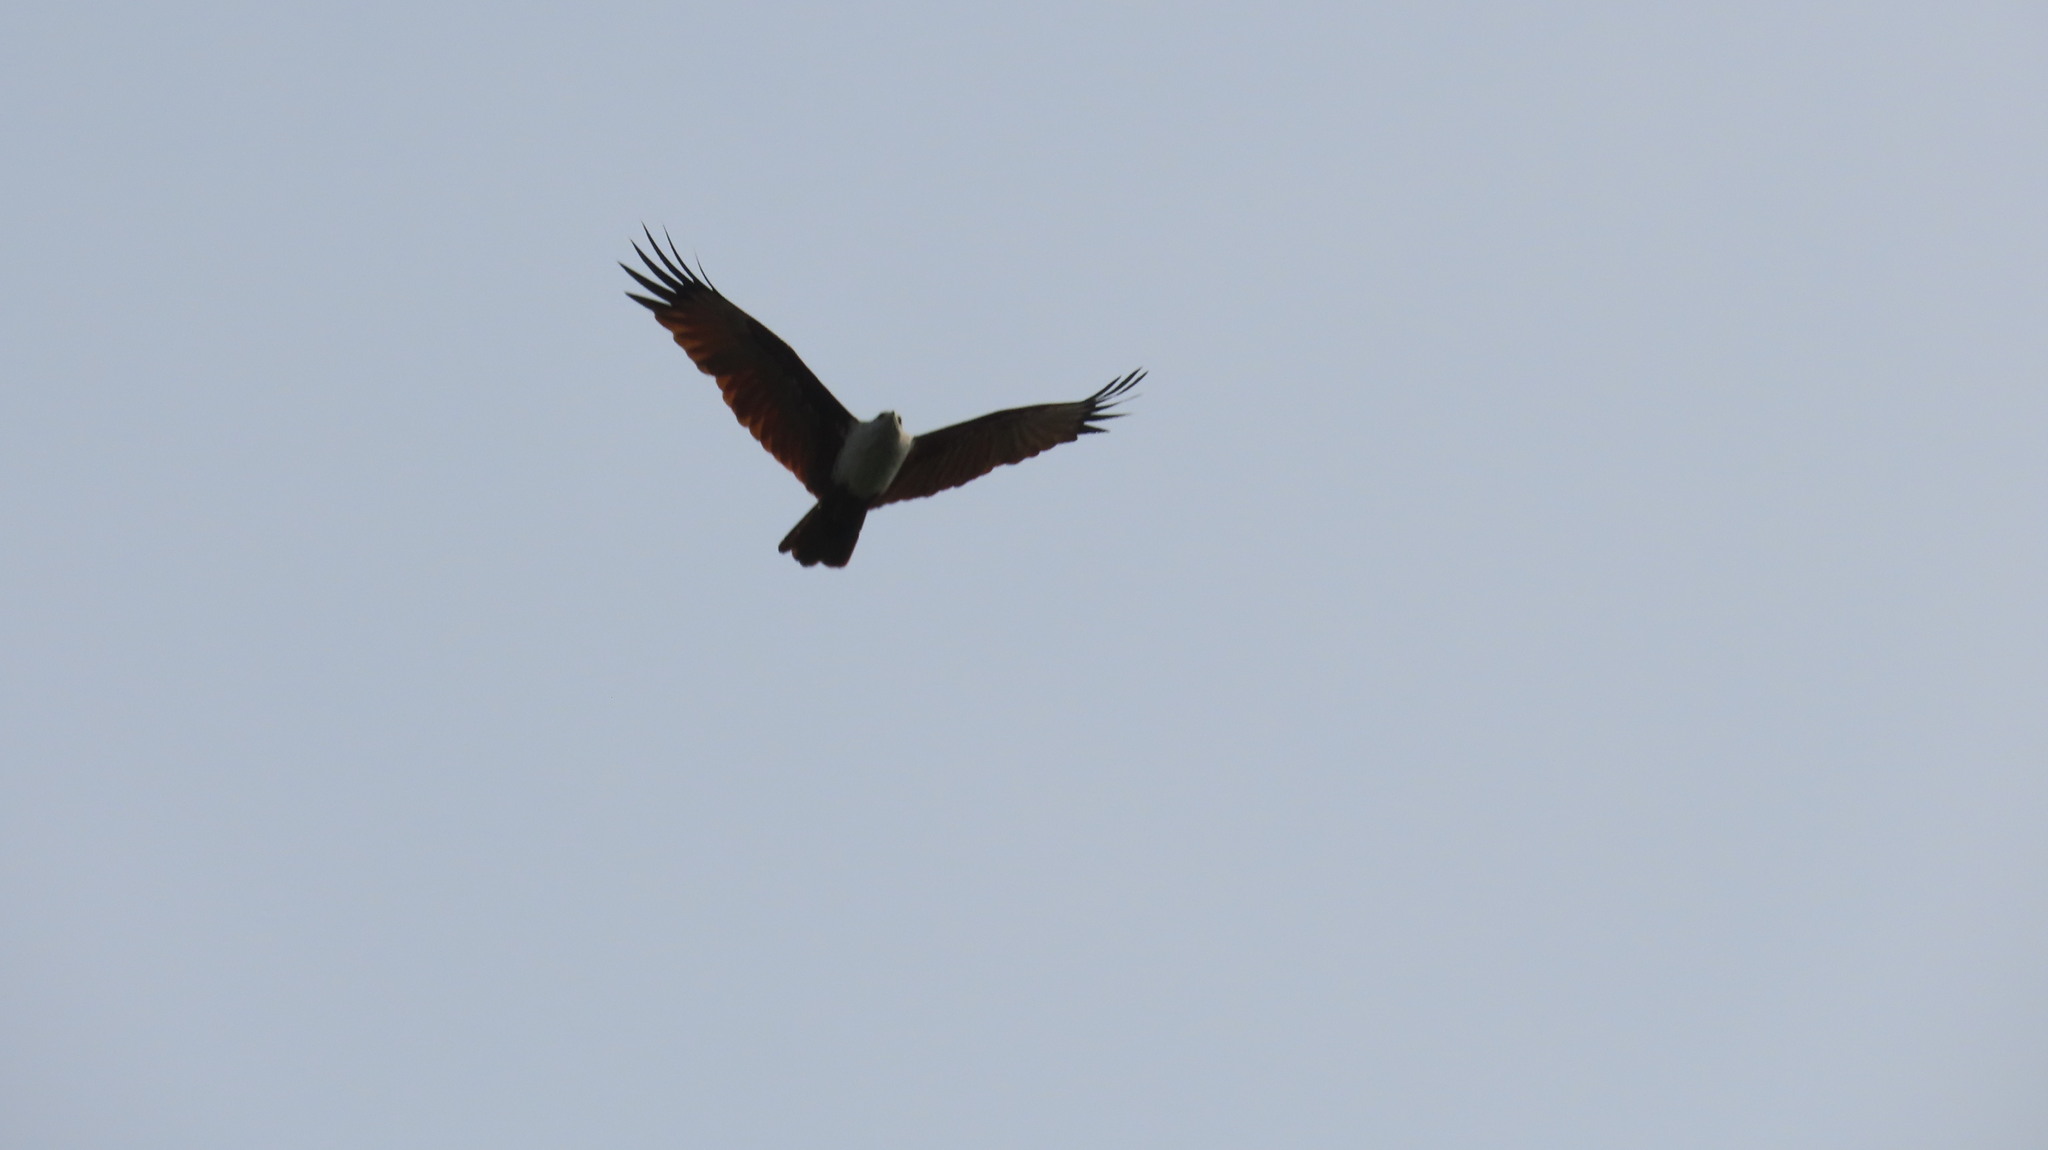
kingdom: Animalia
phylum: Chordata
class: Aves
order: Accipitriformes
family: Accipitridae
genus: Haliastur
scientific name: Haliastur indus
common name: Brahminy kite
